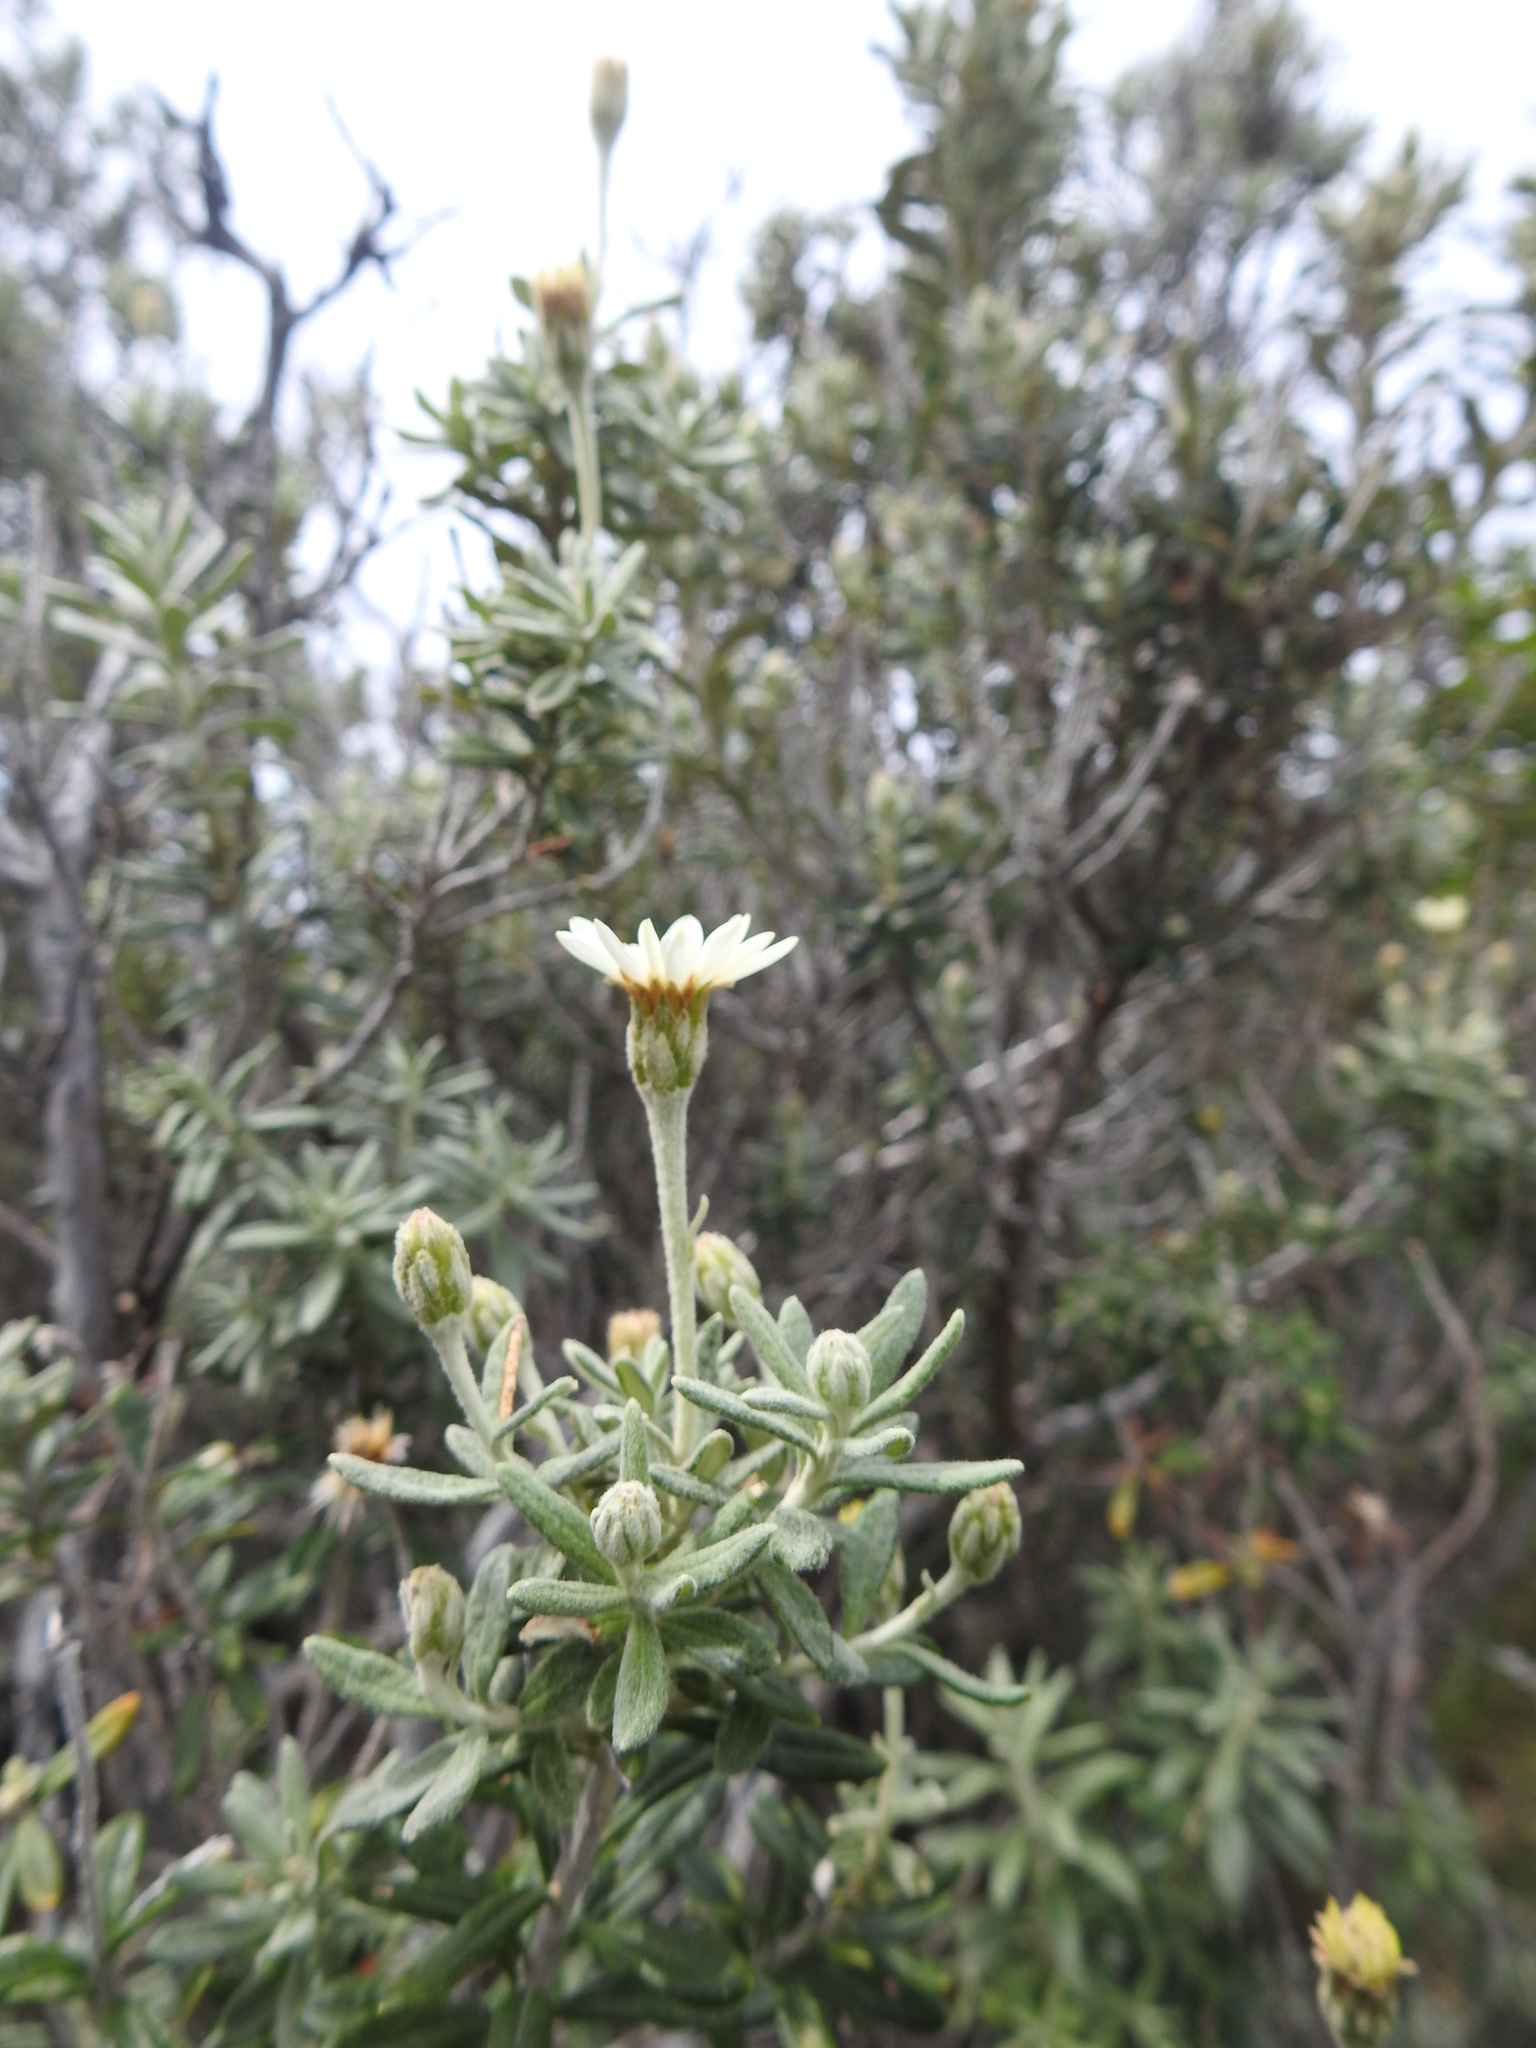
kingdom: Plantae
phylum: Tracheophyta
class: Magnoliopsida
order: Asterales
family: Asteraceae
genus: Chiliotrichum
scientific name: Chiliotrichum diffusum
